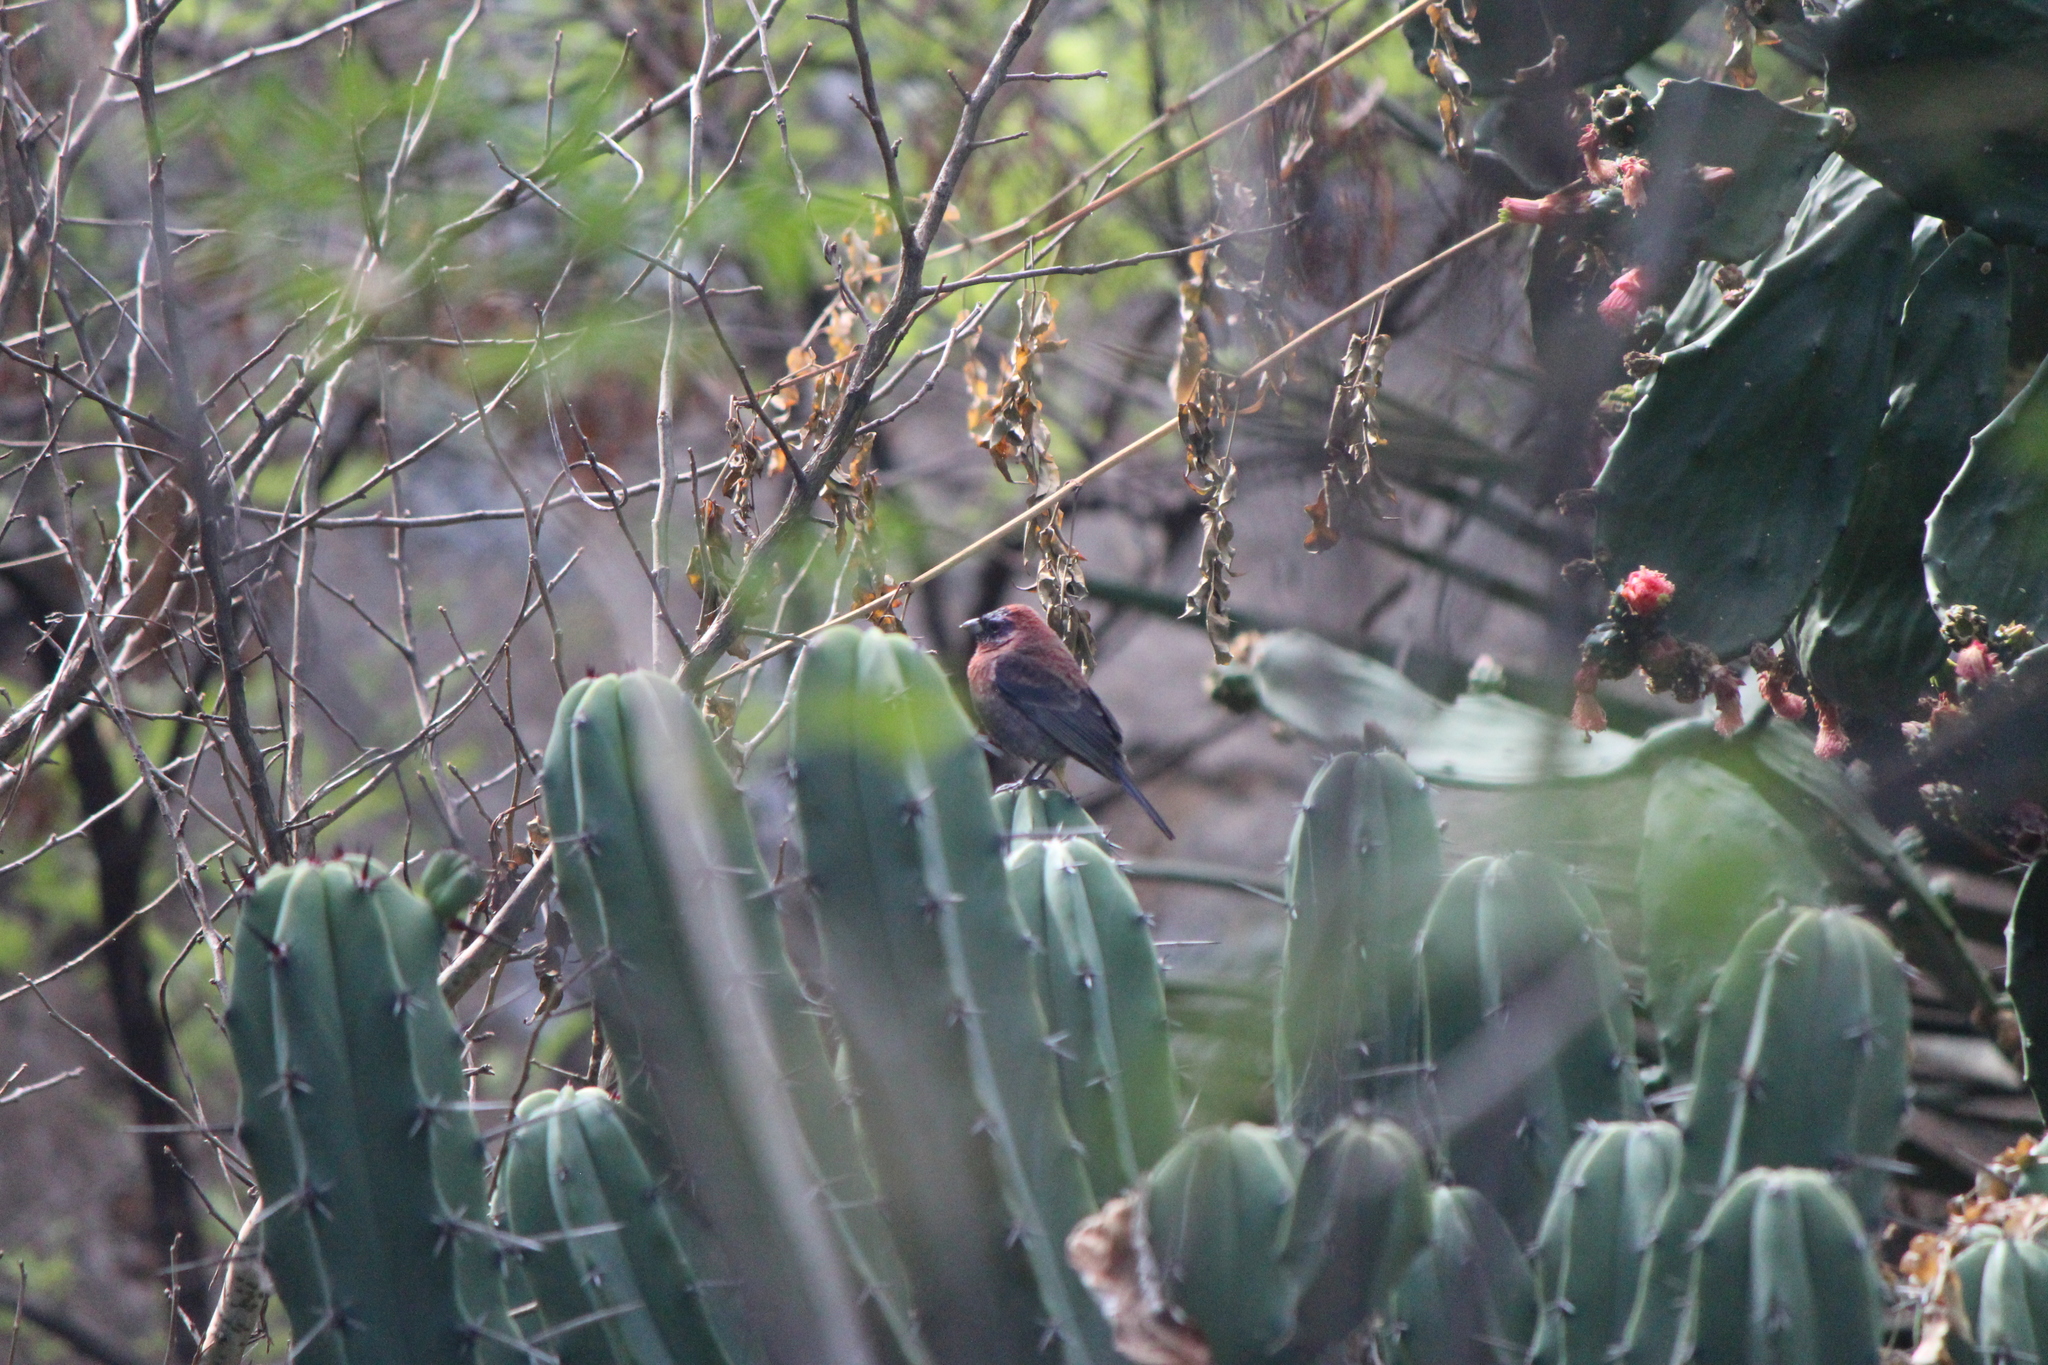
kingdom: Animalia
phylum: Chordata
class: Aves
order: Passeriformes
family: Cardinalidae
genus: Passerina
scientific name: Passerina versicolor
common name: Varied bunting
